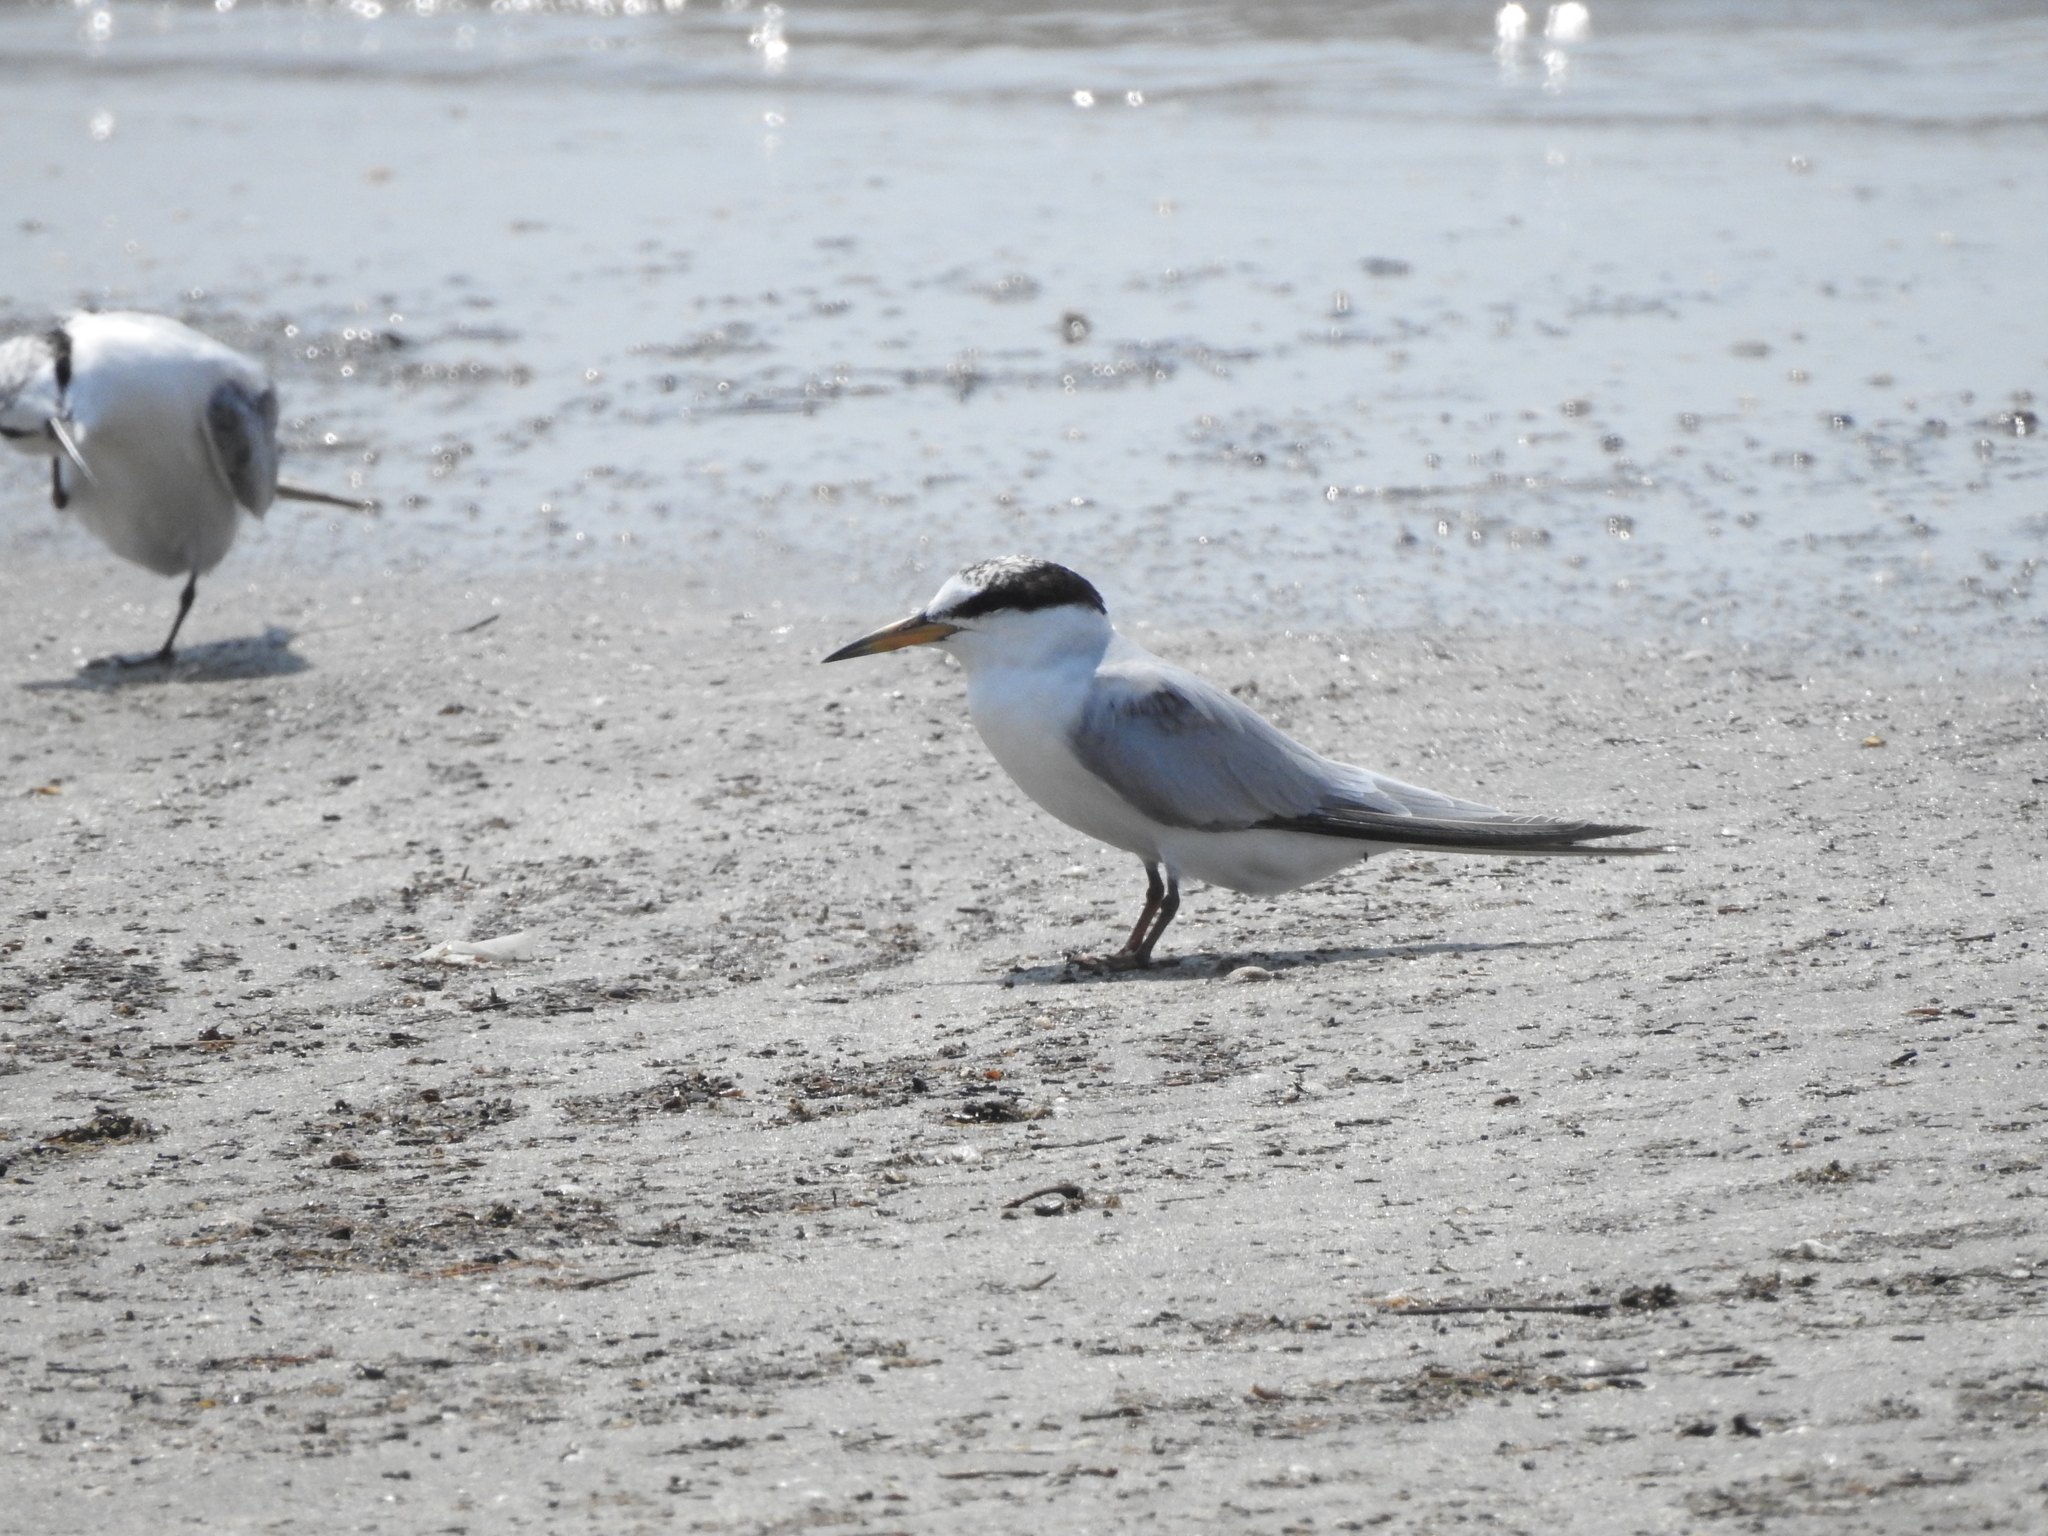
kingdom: Animalia
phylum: Chordata
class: Aves
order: Charadriiformes
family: Laridae
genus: Sternula
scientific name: Sternula antillarum
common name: Least tern
